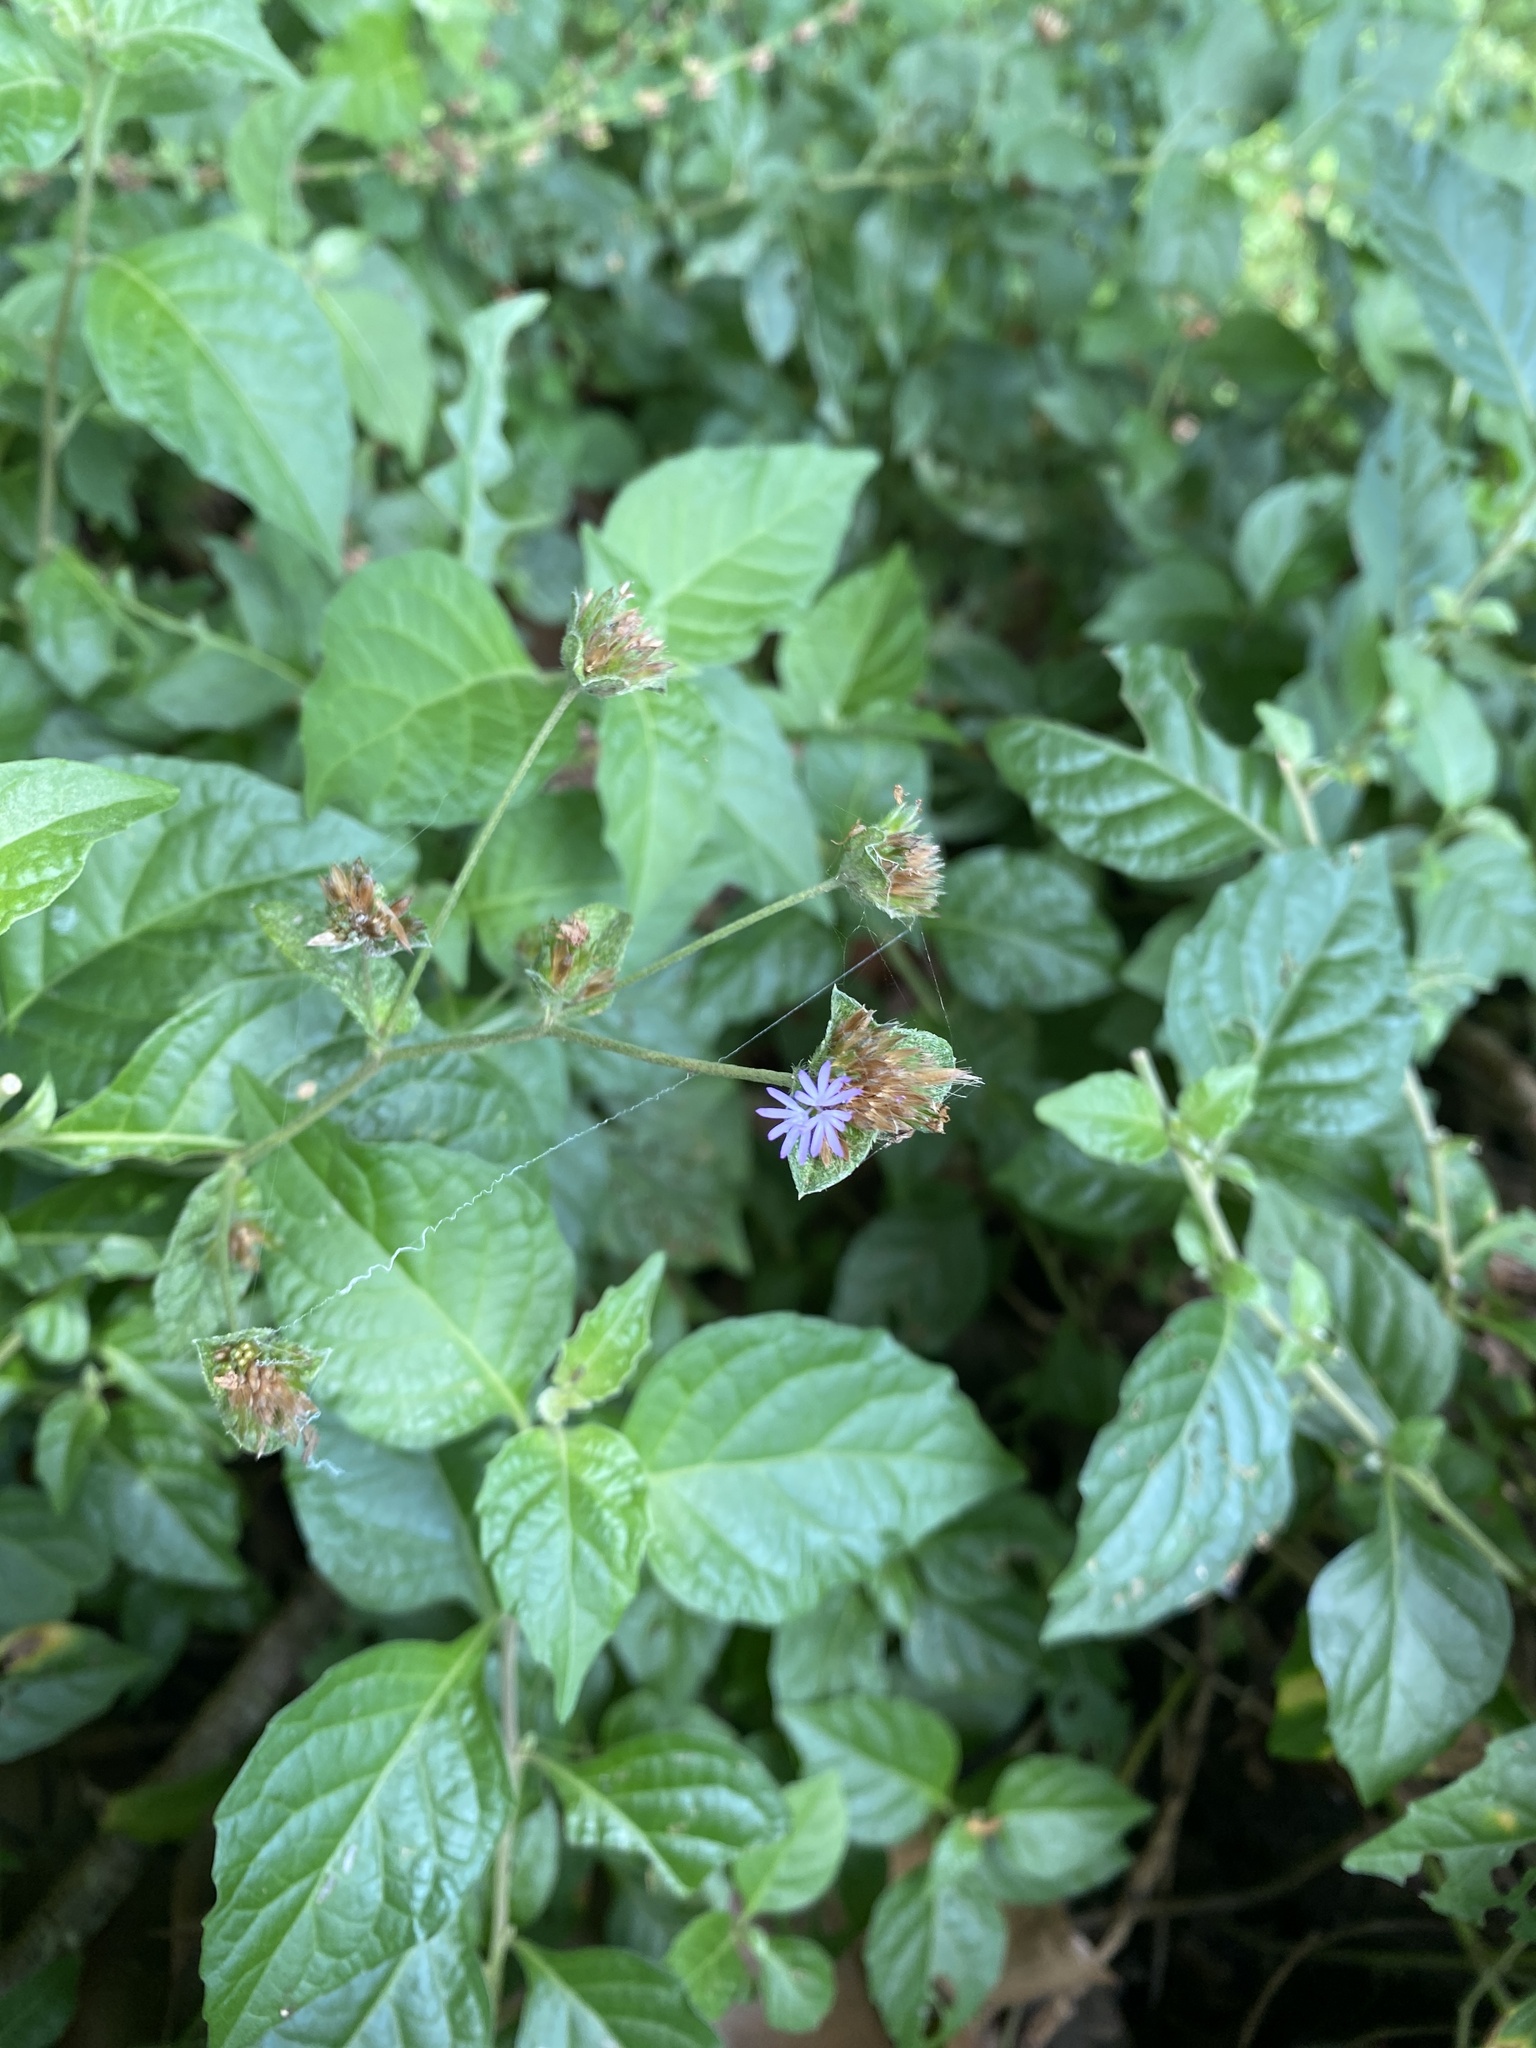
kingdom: Plantae
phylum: Tracheophyta
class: Magnoliopsida
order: Asterales
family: Asteraceae
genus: Elephantopus
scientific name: Elephantopus mollis
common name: Soft elephantsfoot
